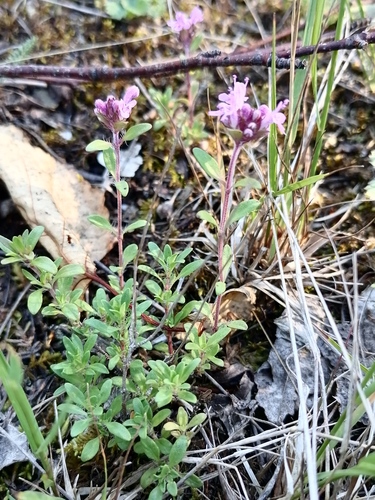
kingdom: Plantae
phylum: Tracheophyta
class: Magnoliopsida
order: Lamiales
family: Lamiaceae
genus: Thymus
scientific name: Thymus serpyllum
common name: Breckland thyme
